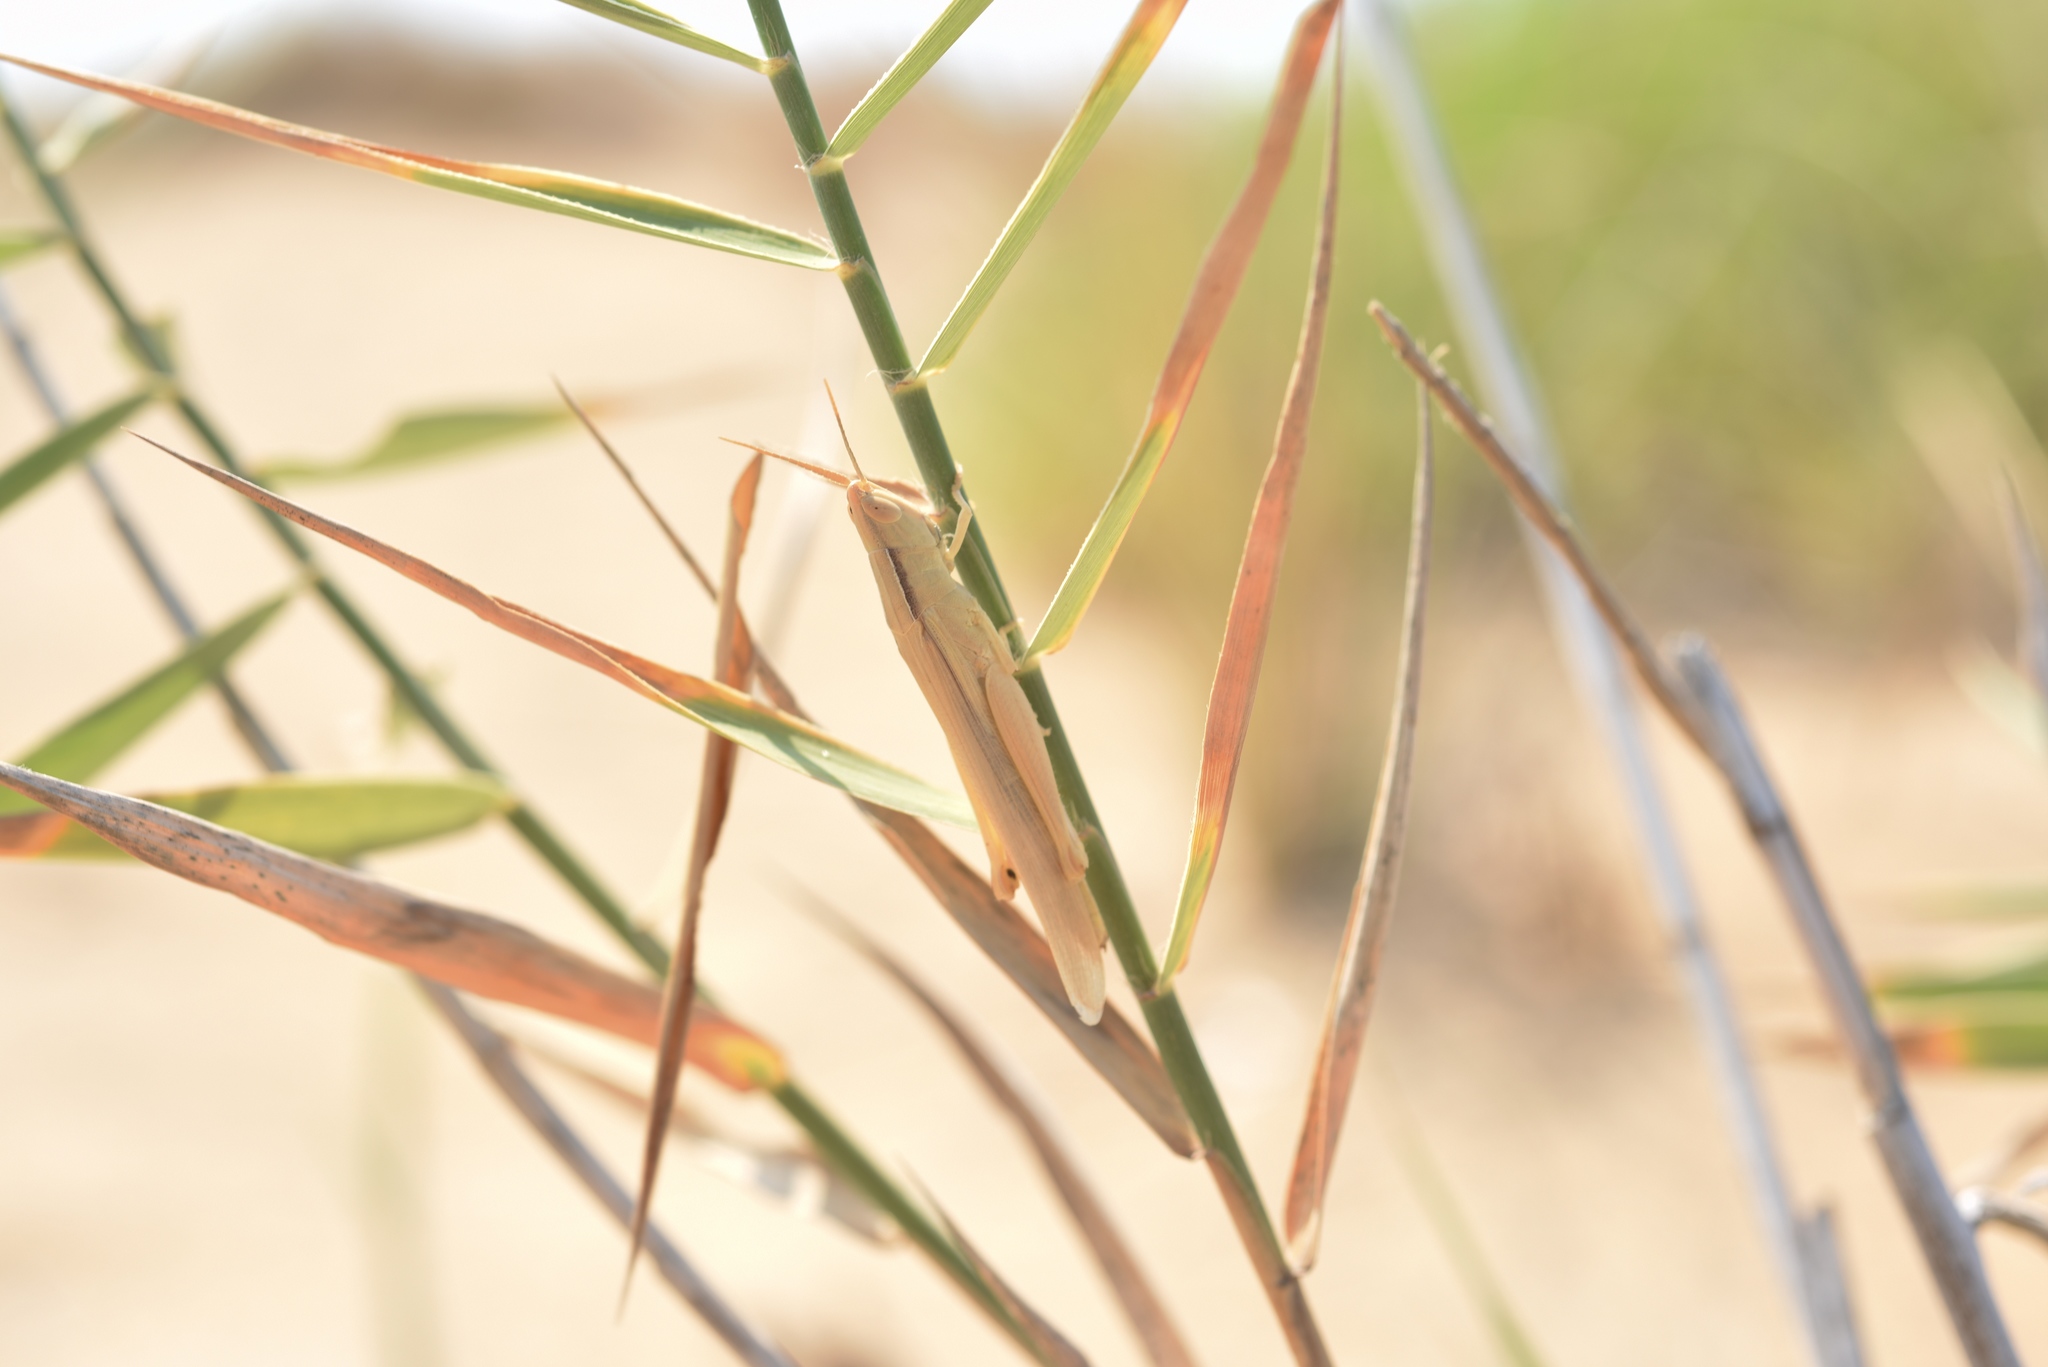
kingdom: Animalia
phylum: Arthropoda
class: Insecta
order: Orthoptera
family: Acrididae
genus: Ochrilidia
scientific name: Ochrilidia nuragica
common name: Sardinian cylindric grasshopper
